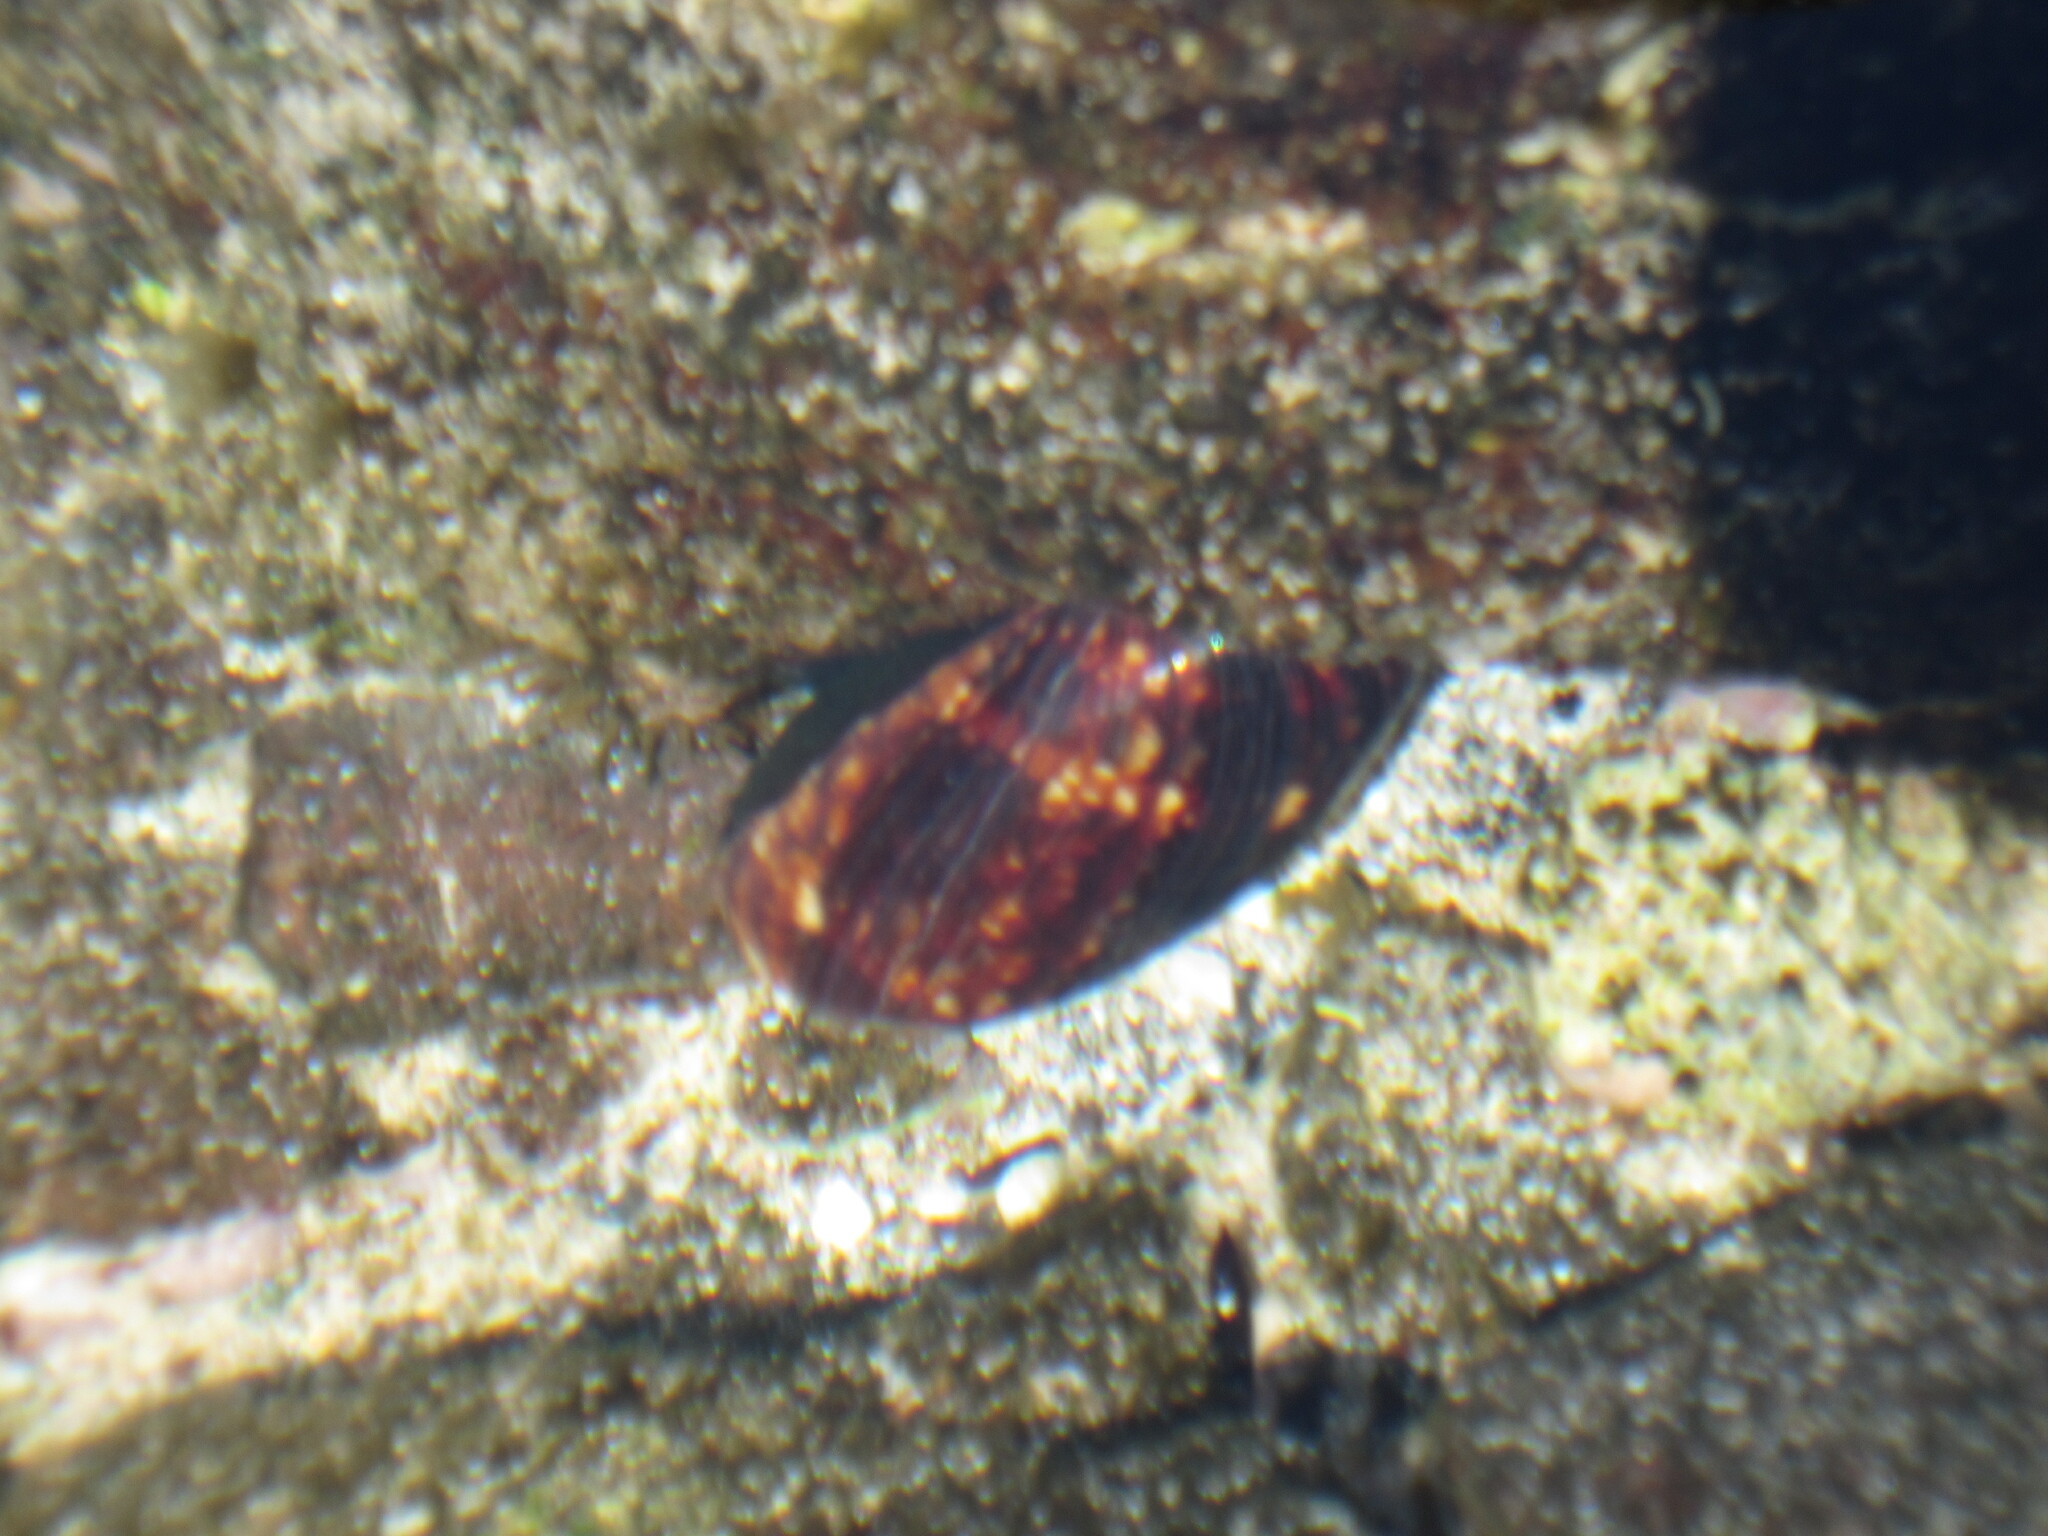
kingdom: Animalia
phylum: Mollusca
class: Gastropoda
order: Littorinimorpha
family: Cypraeidae
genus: Mauritia
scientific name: Mauritia mauritiana
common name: Hump-backed cowrie
